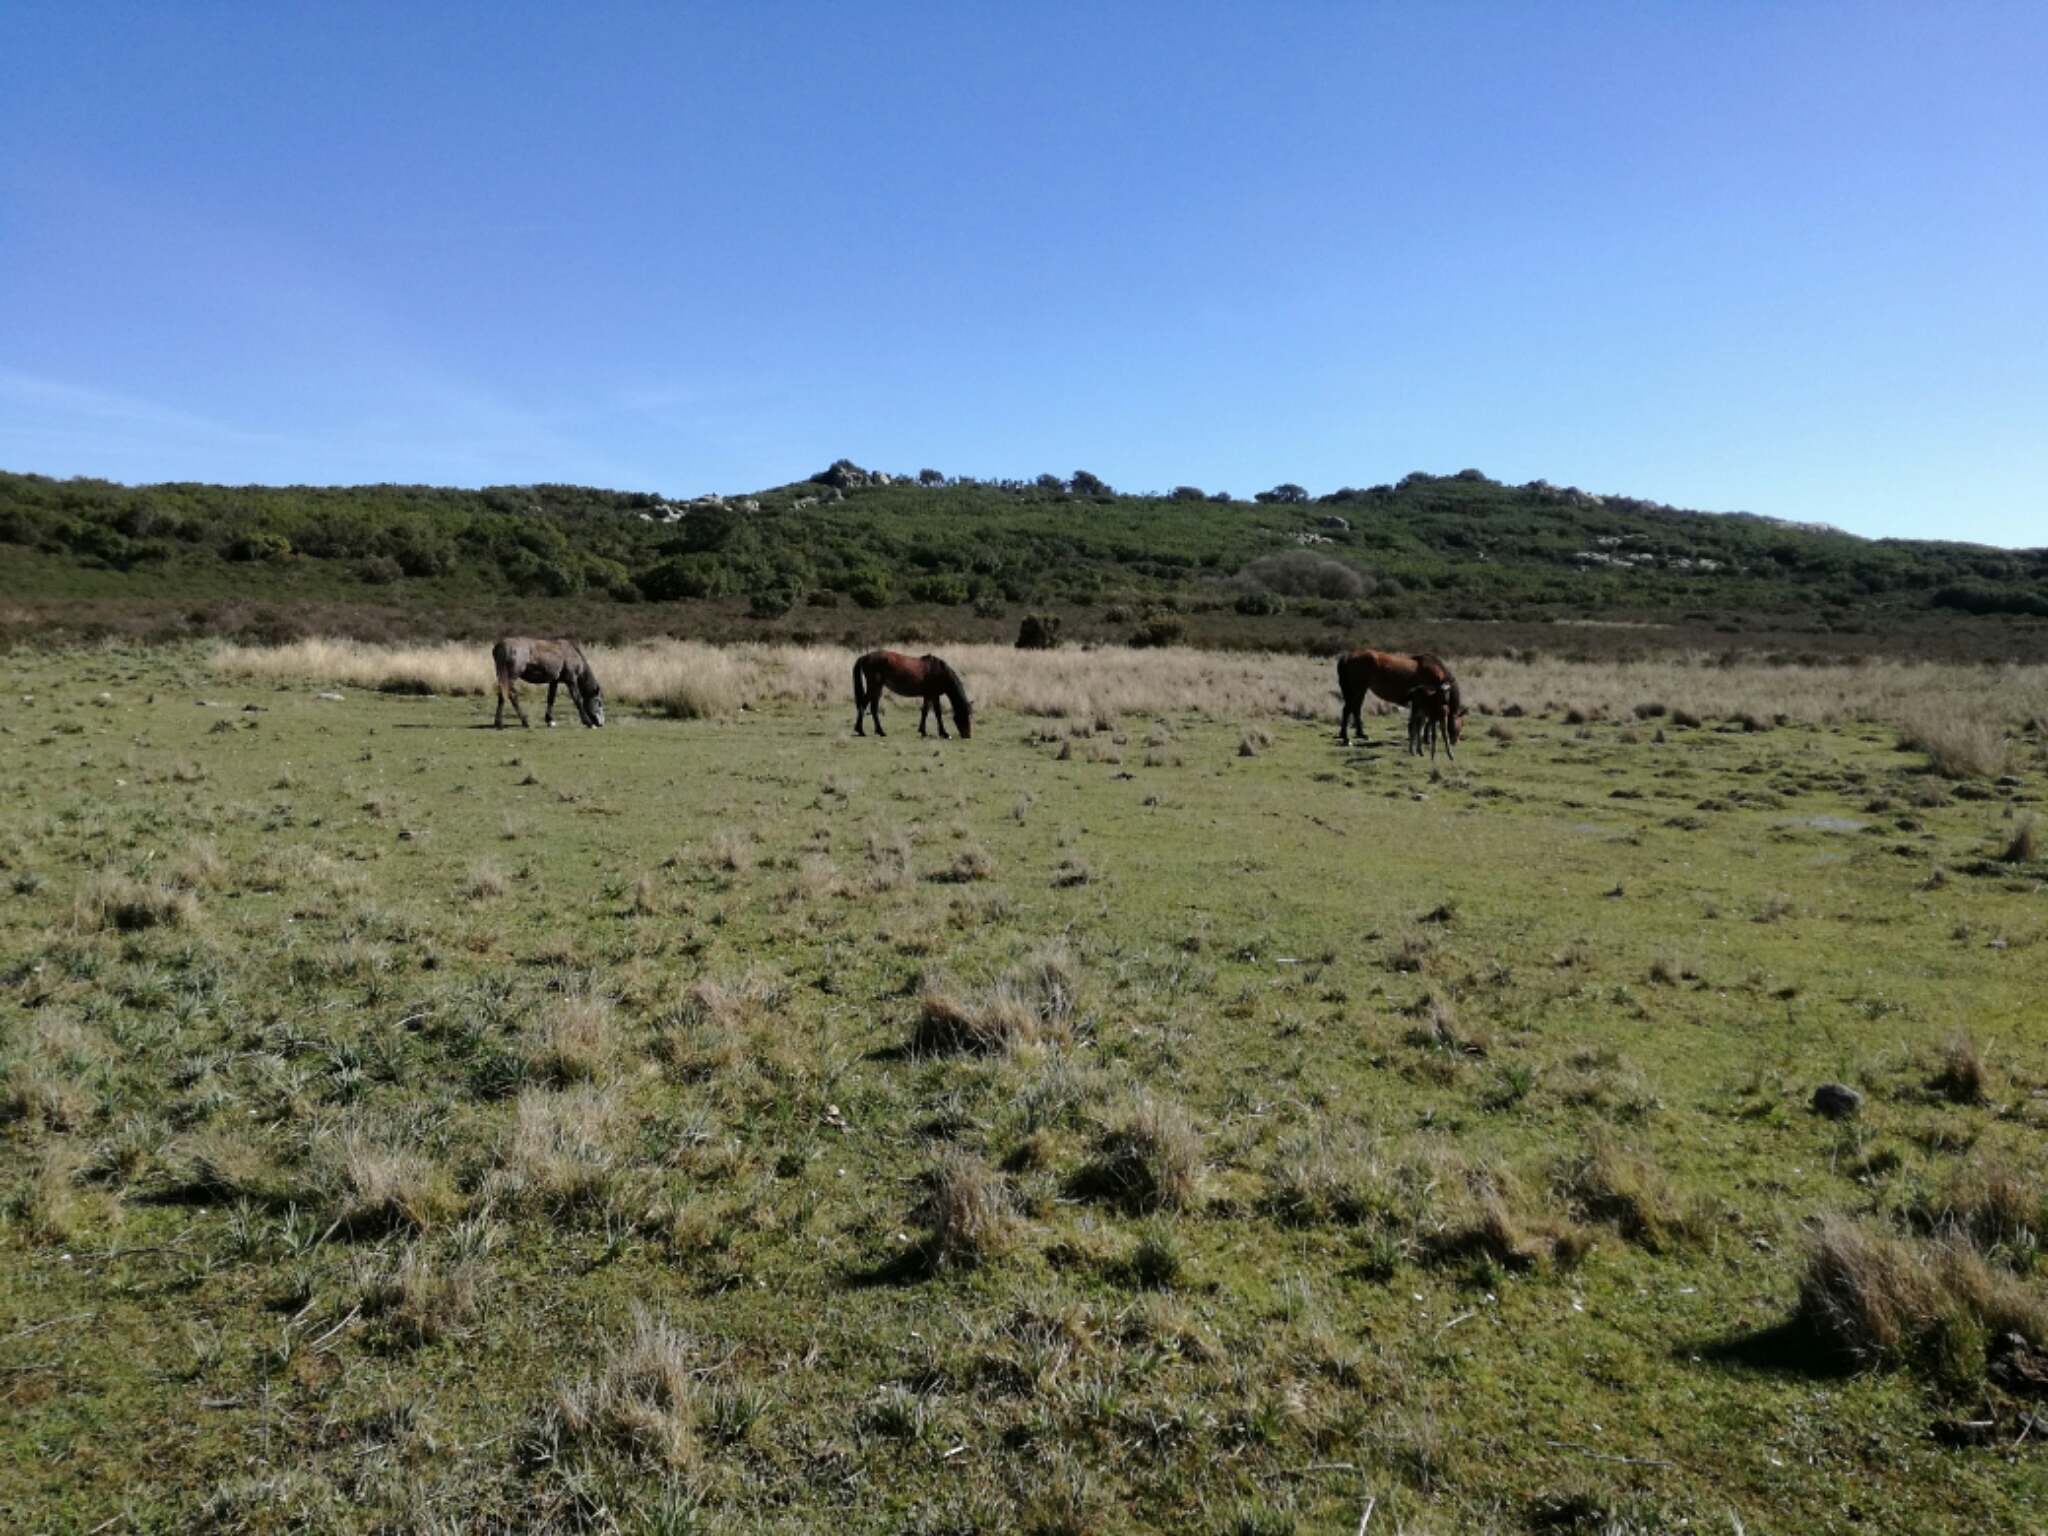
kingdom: Animalia
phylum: Chordata
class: Mammalia
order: Perissodactyla
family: Equidae
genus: Equus
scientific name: Equus caballus
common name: Horse
